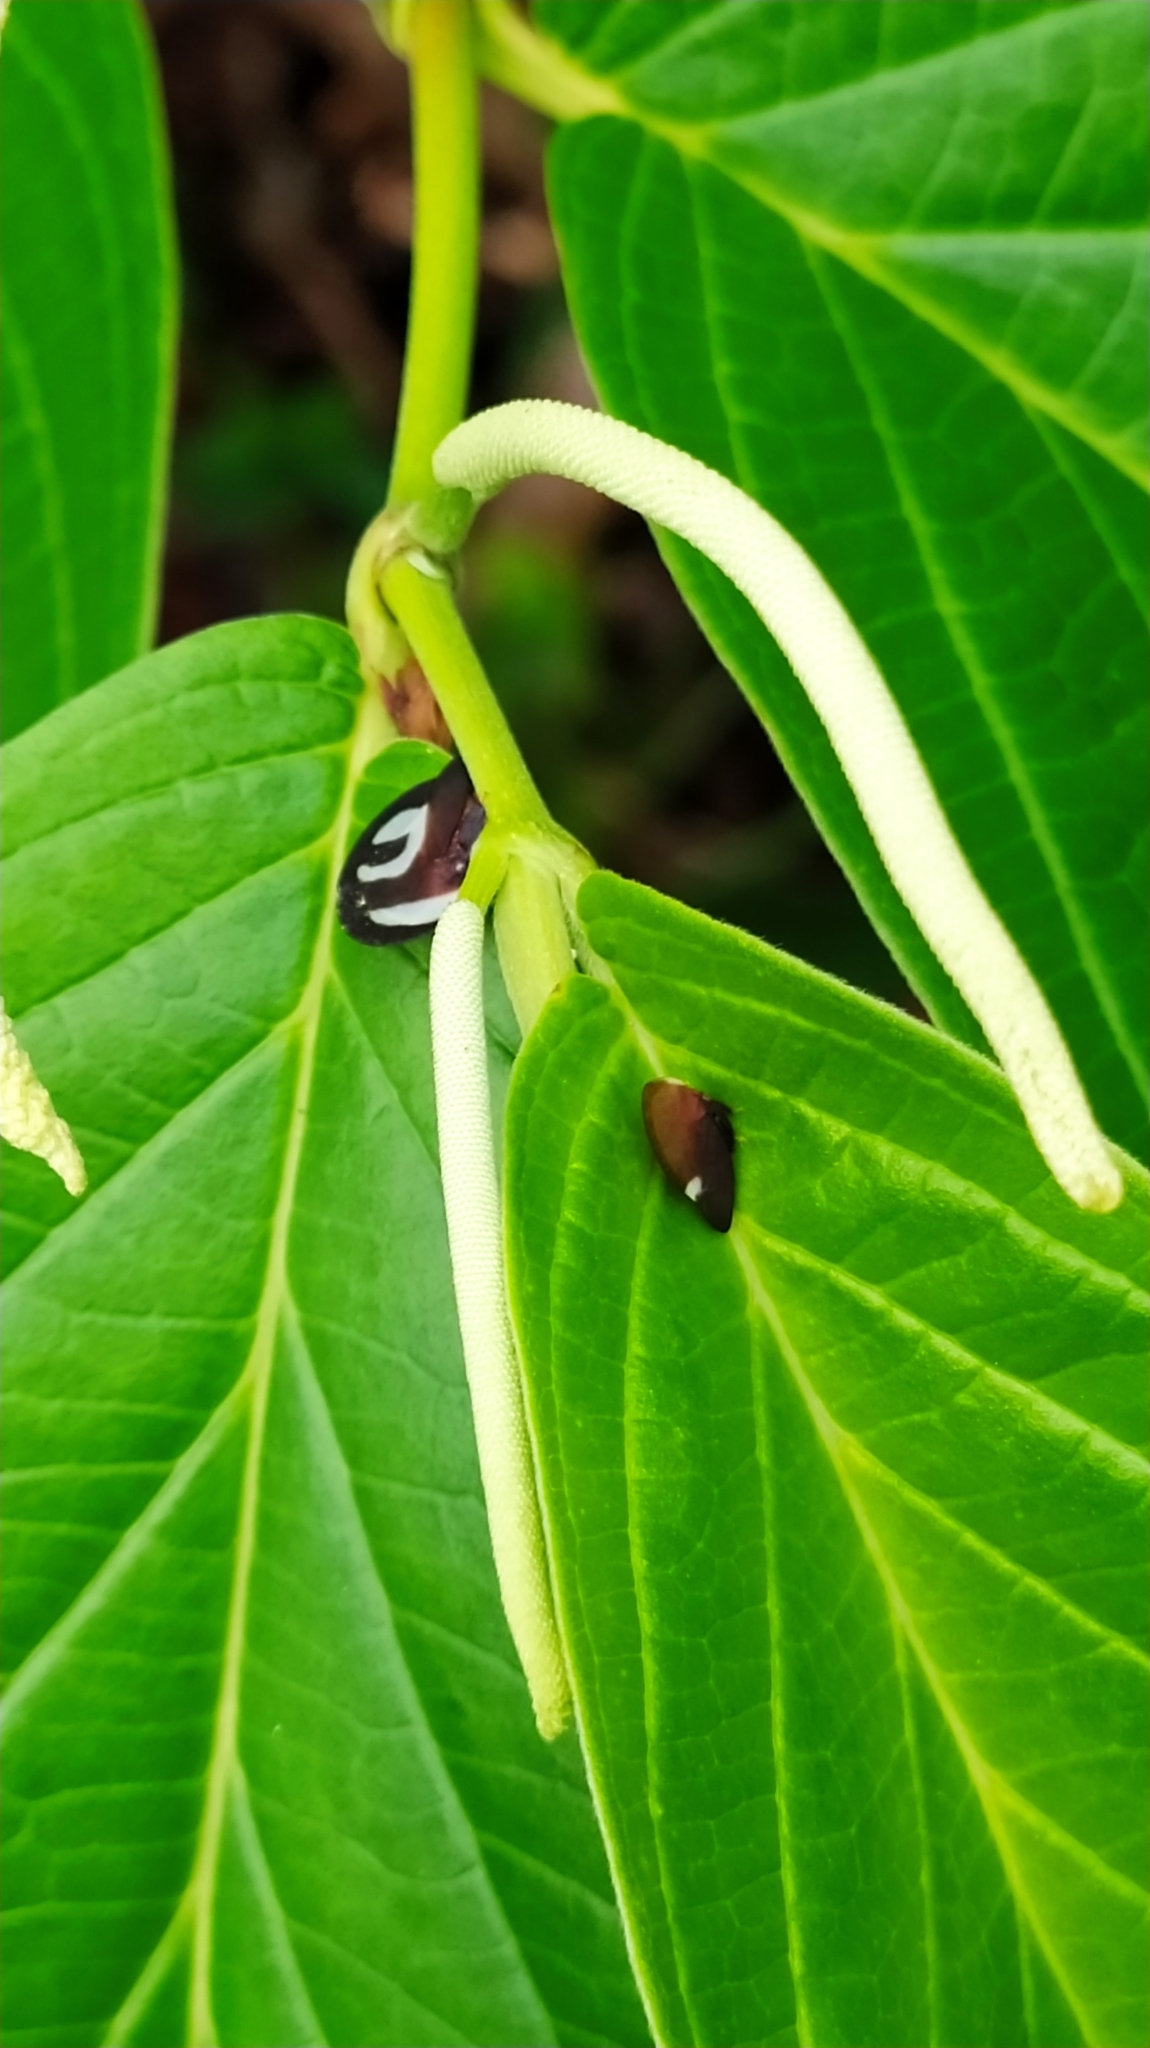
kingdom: Animalia
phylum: Arthropoda
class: Insecta
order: Hemiptera
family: Membracidae
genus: Membracis
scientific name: Membracis tectigera
